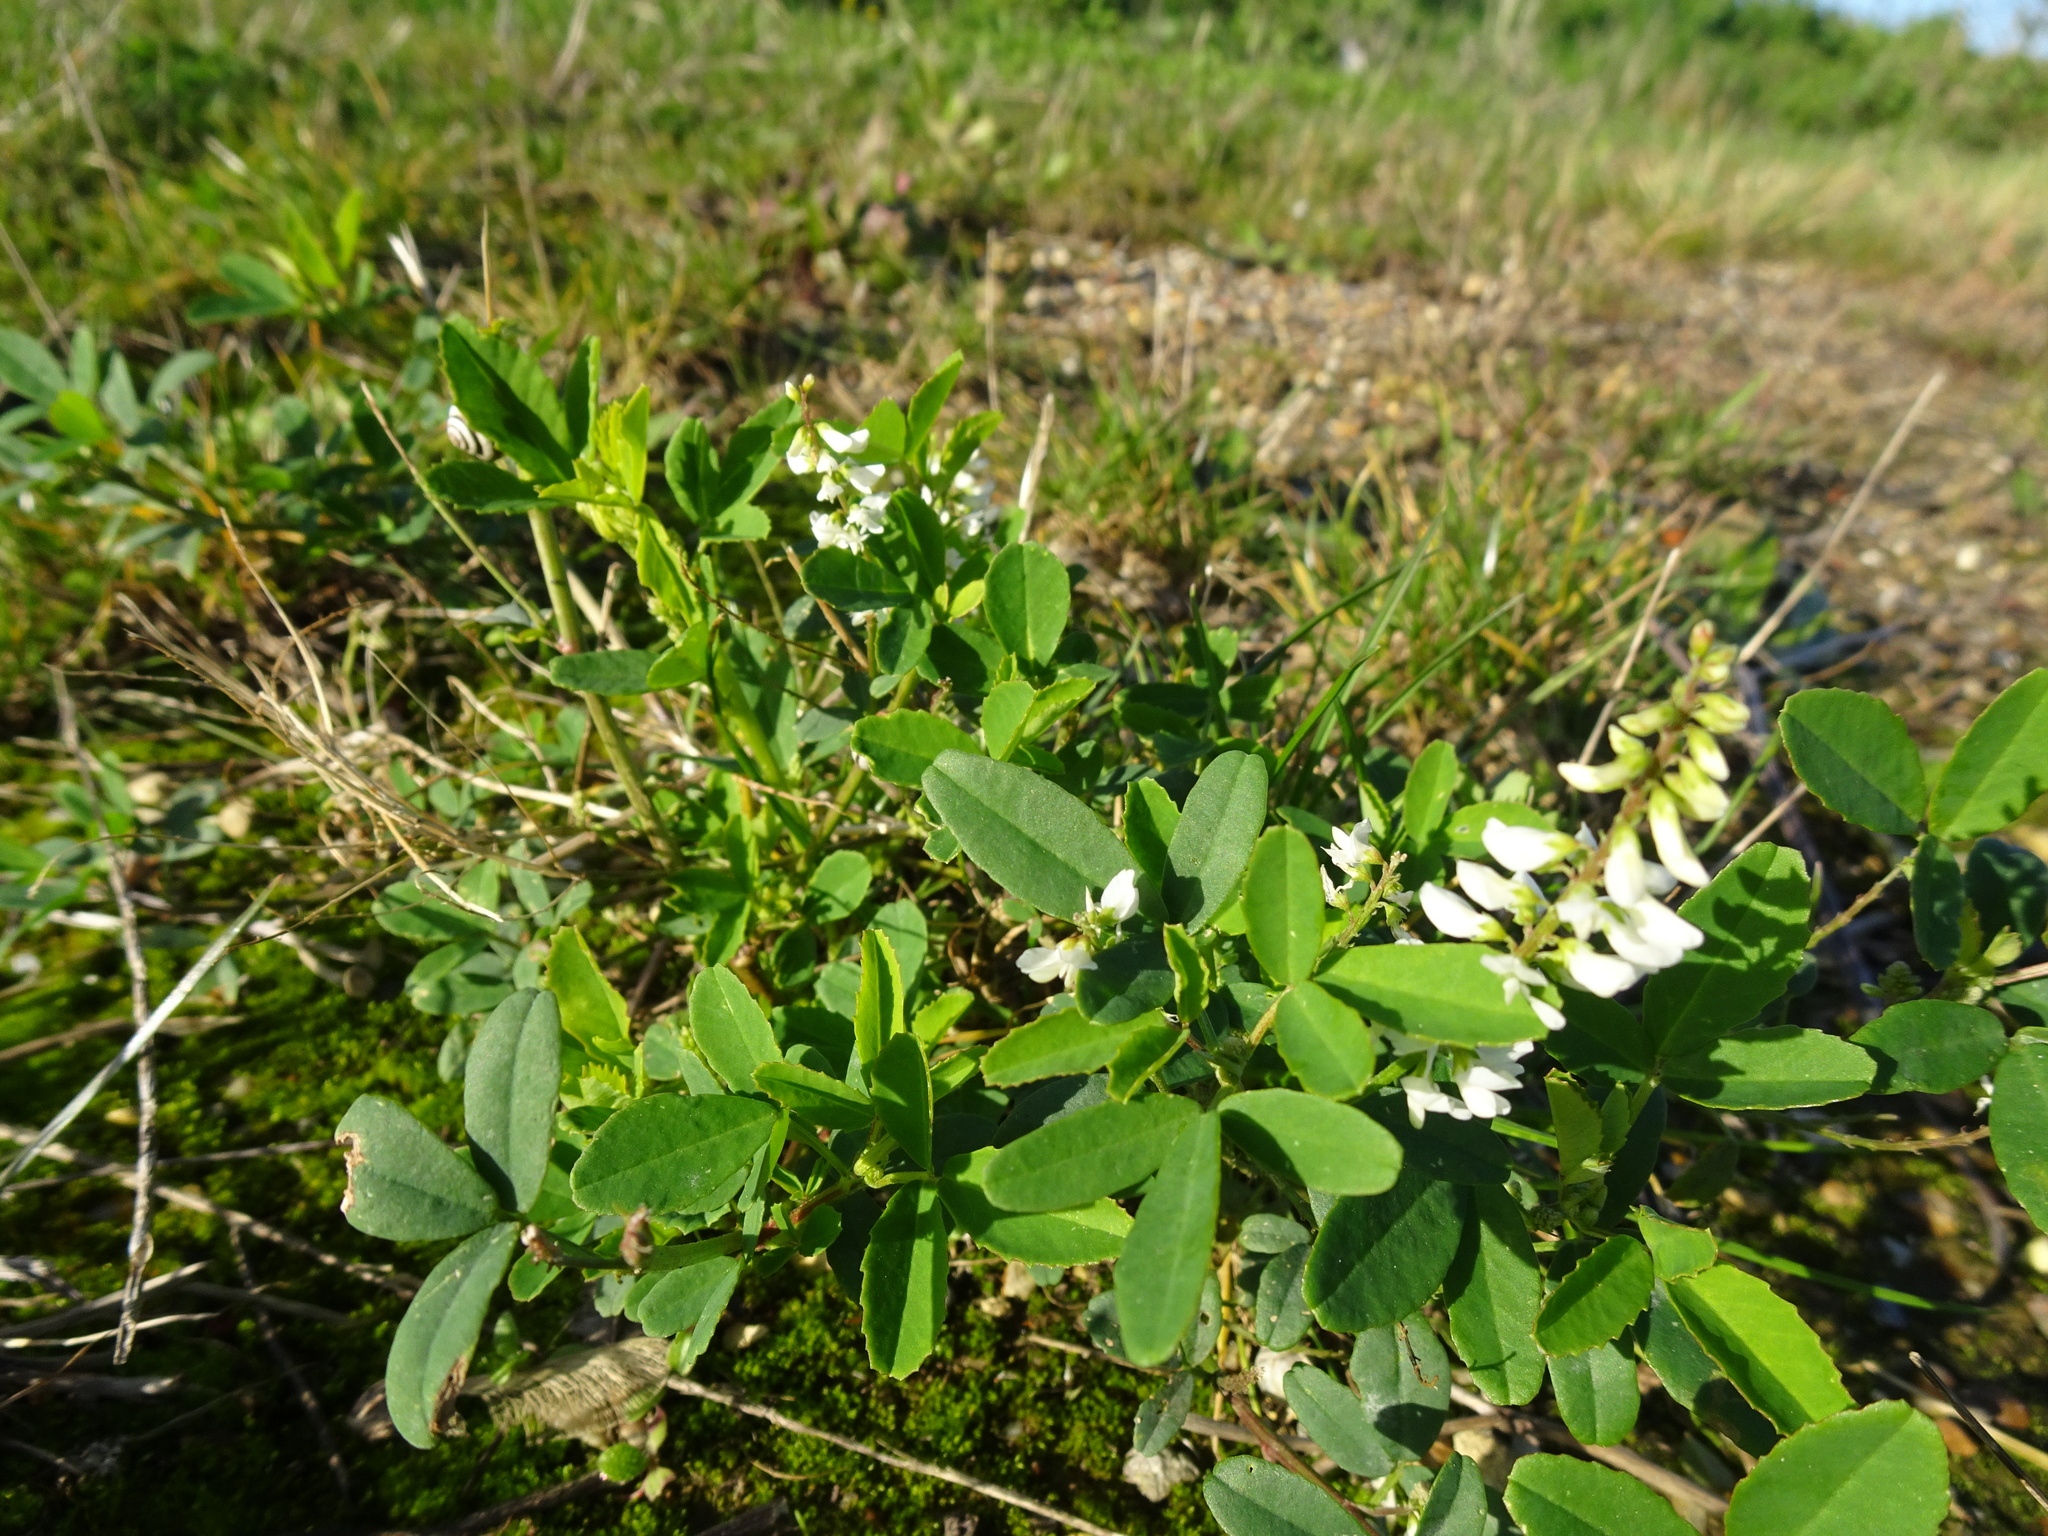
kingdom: Plantae
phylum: Tracheophyta
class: Magnoliopsida
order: Fabales
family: Fabaceae
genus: Melilotus
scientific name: Melilotus albus
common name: White melilot
